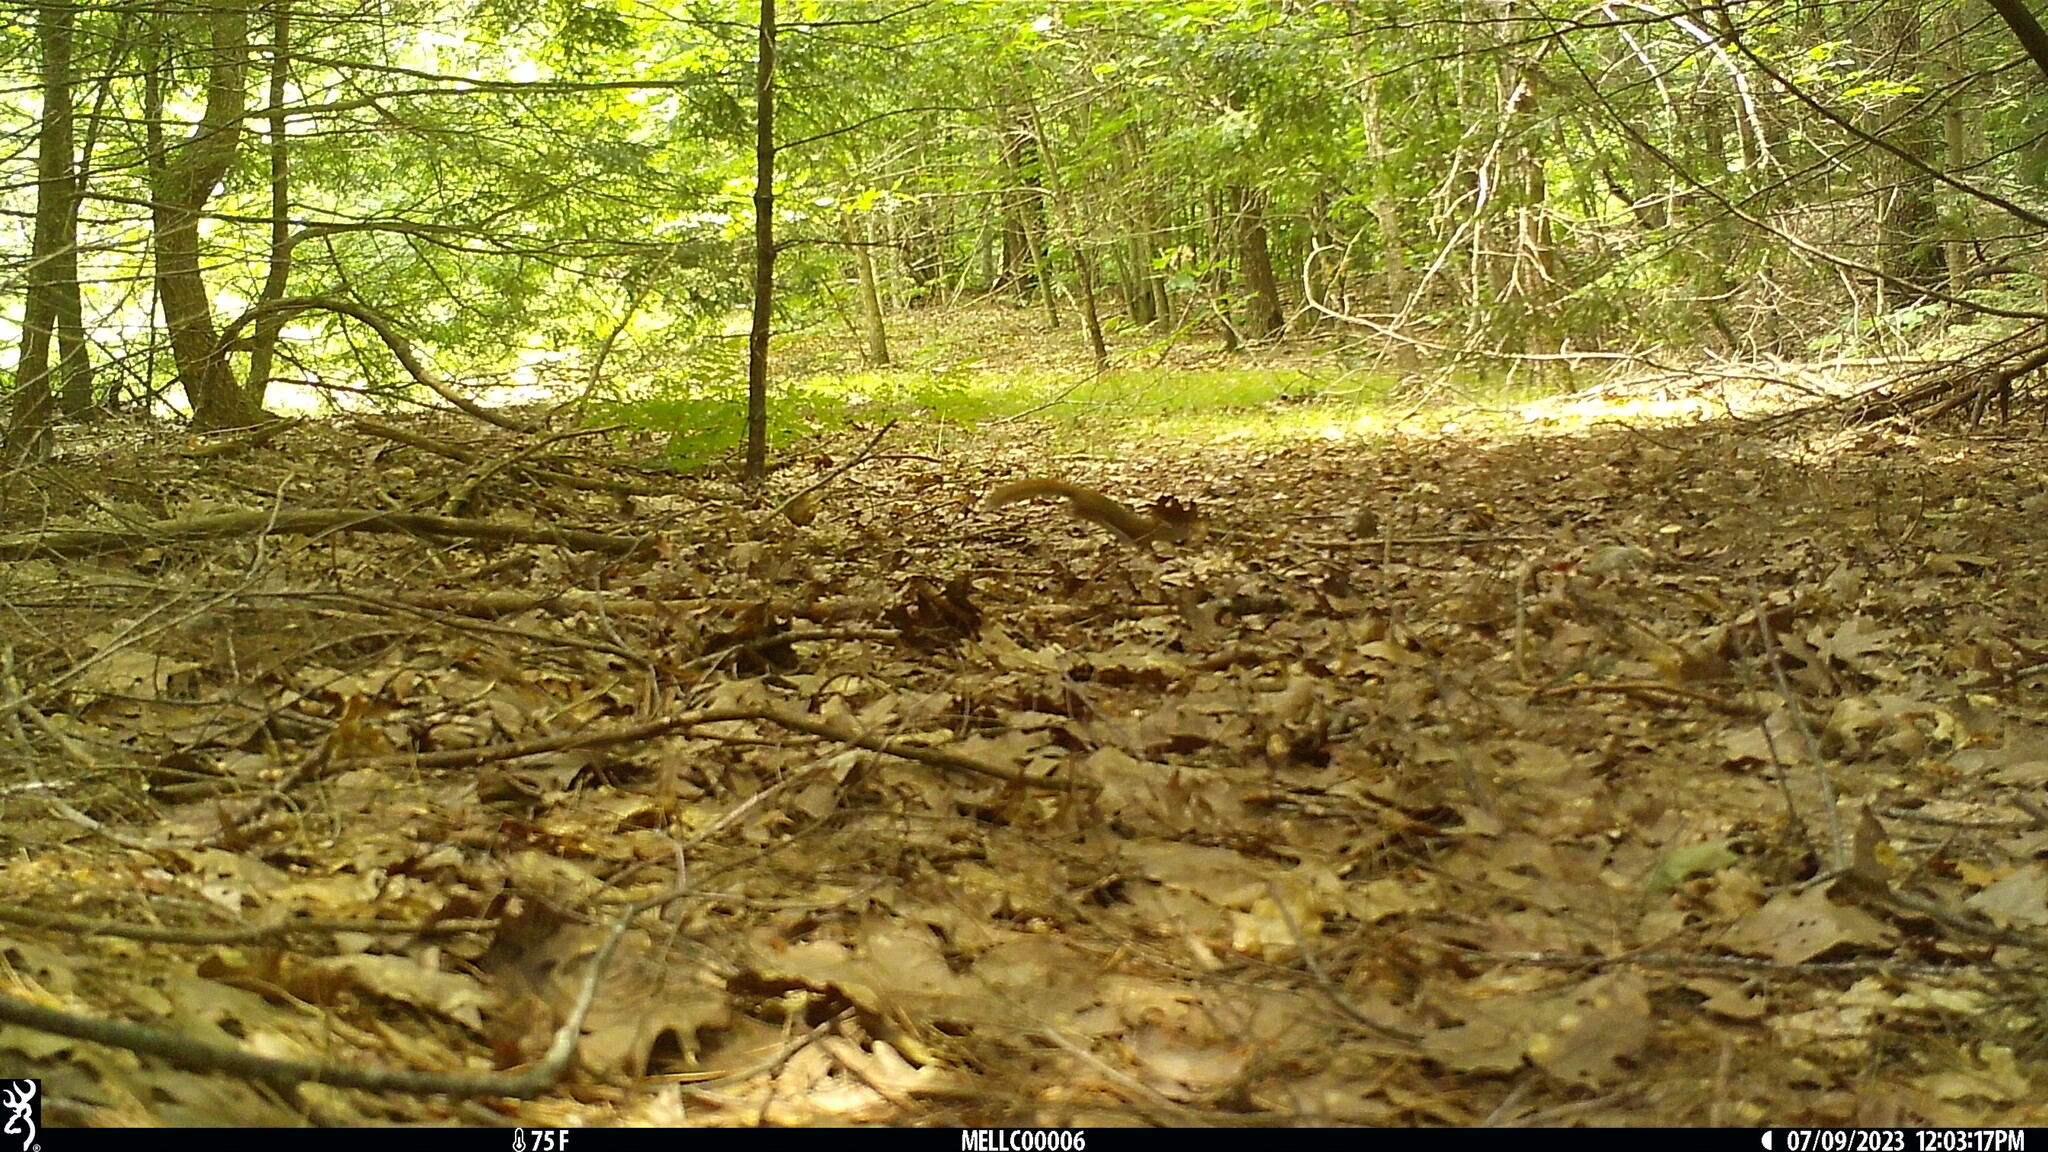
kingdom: Animalia
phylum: Chordata
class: Mammalia
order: Rodentia
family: Sciuridae
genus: Tamiasciurus
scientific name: Tamiasciurus hudsonicus
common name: Red squirrel
